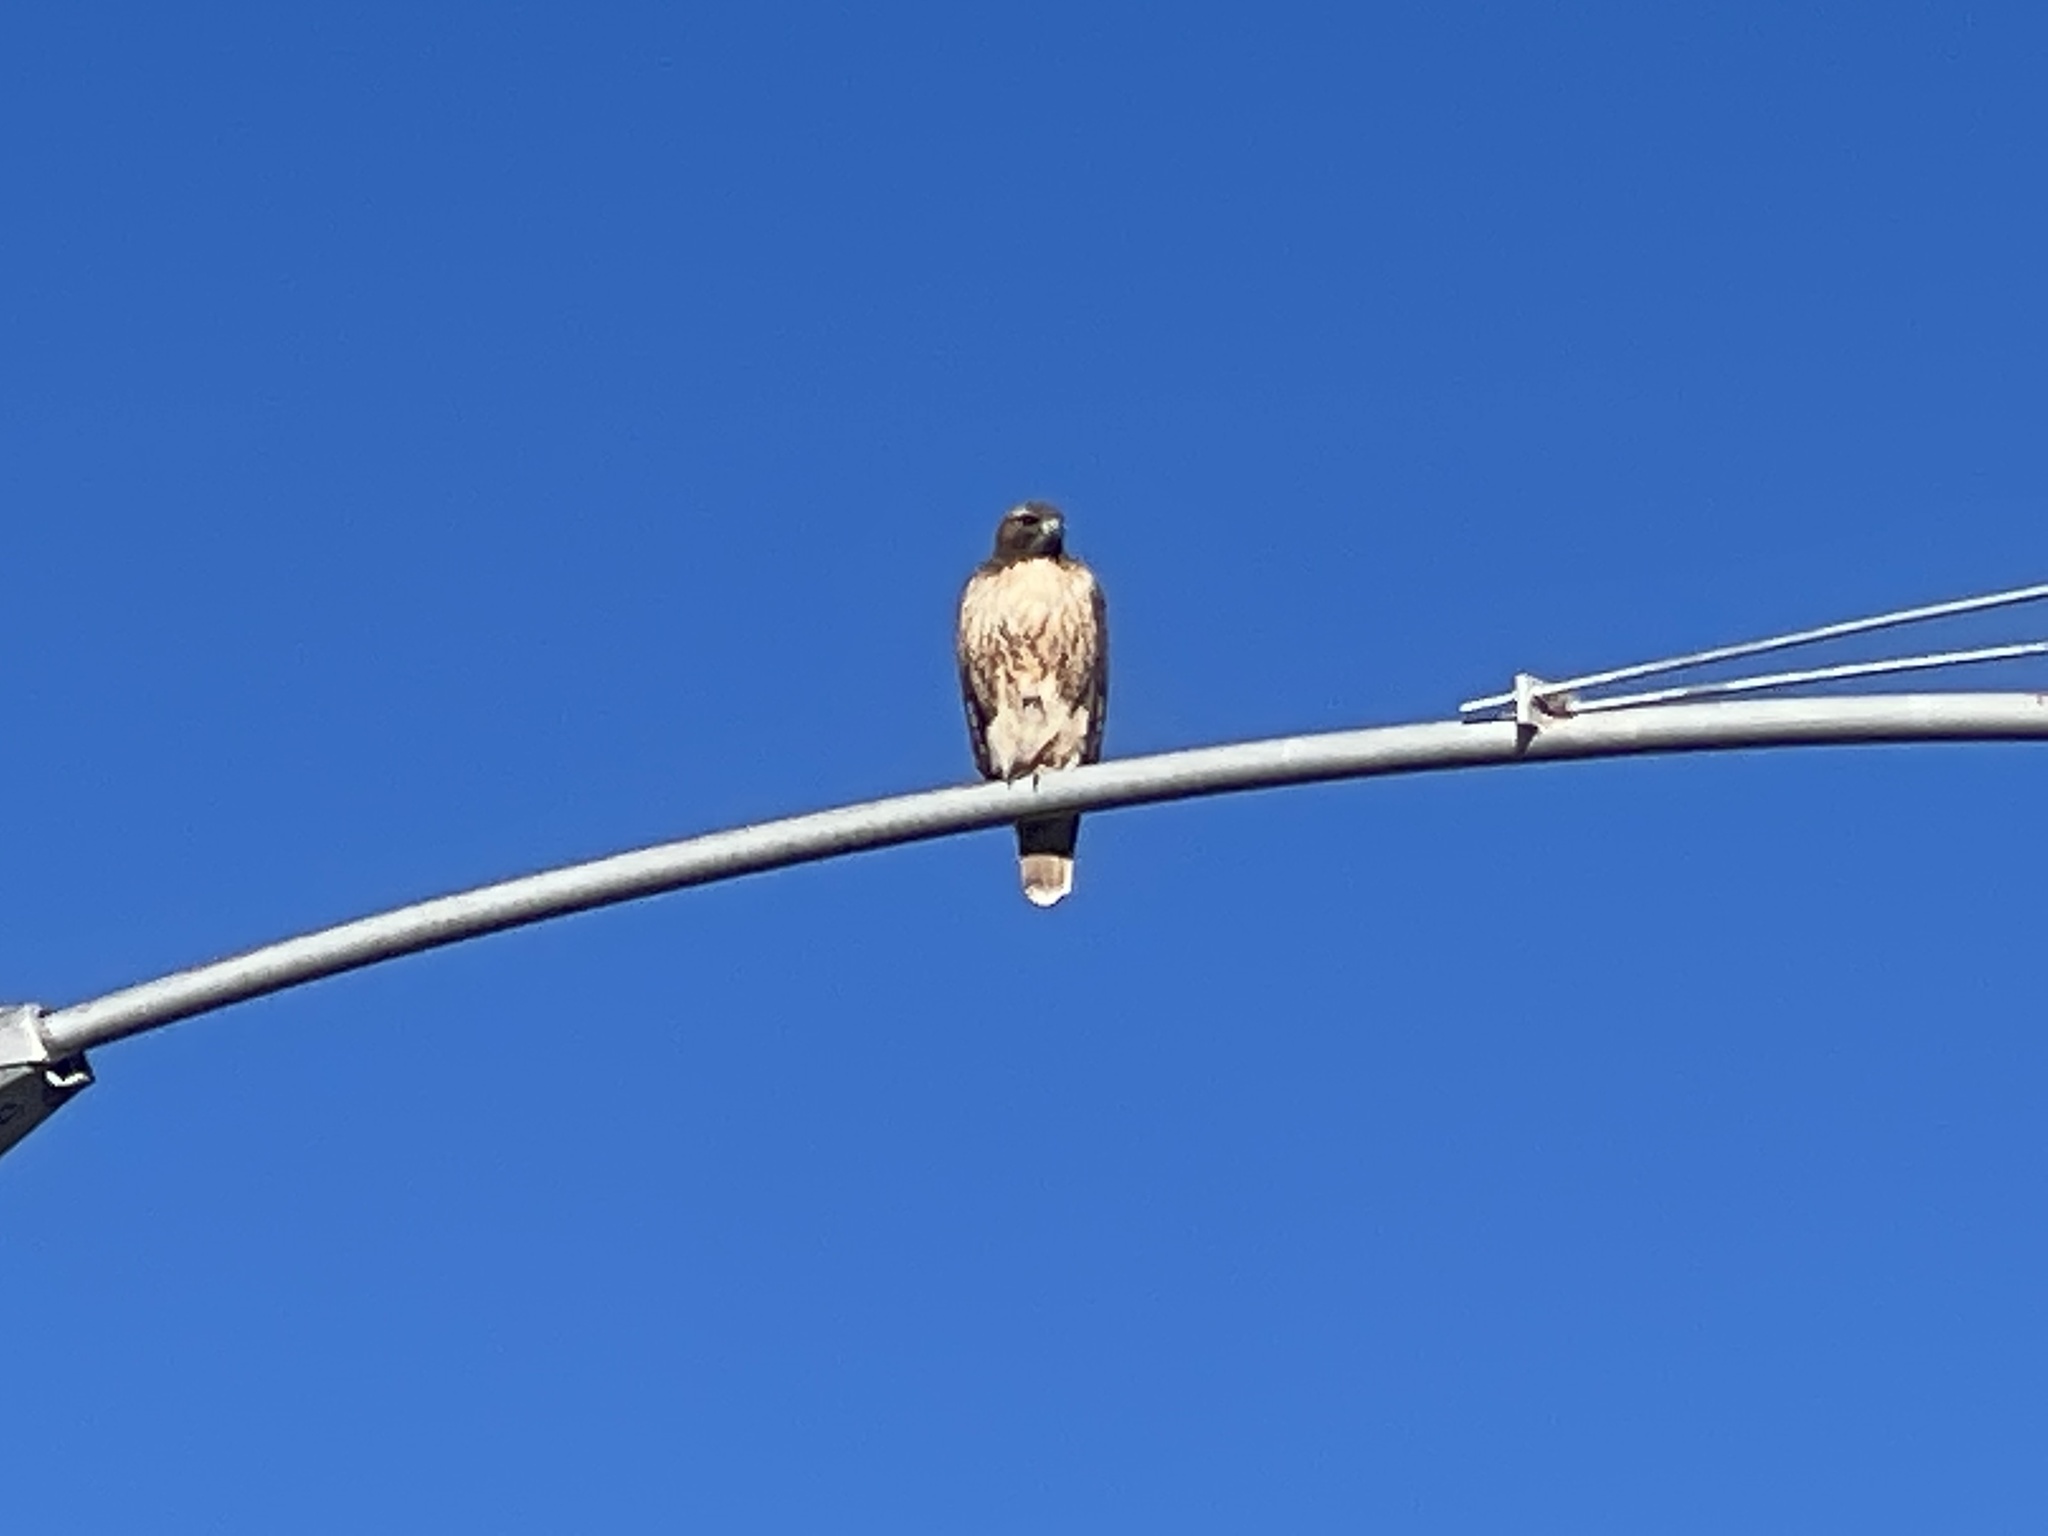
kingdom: Animalia
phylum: Chordata
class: Aves
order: Accipitriformes
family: Accipitridae
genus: Buteo
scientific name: Buteo jamaicensis
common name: Red-tailed hawk
